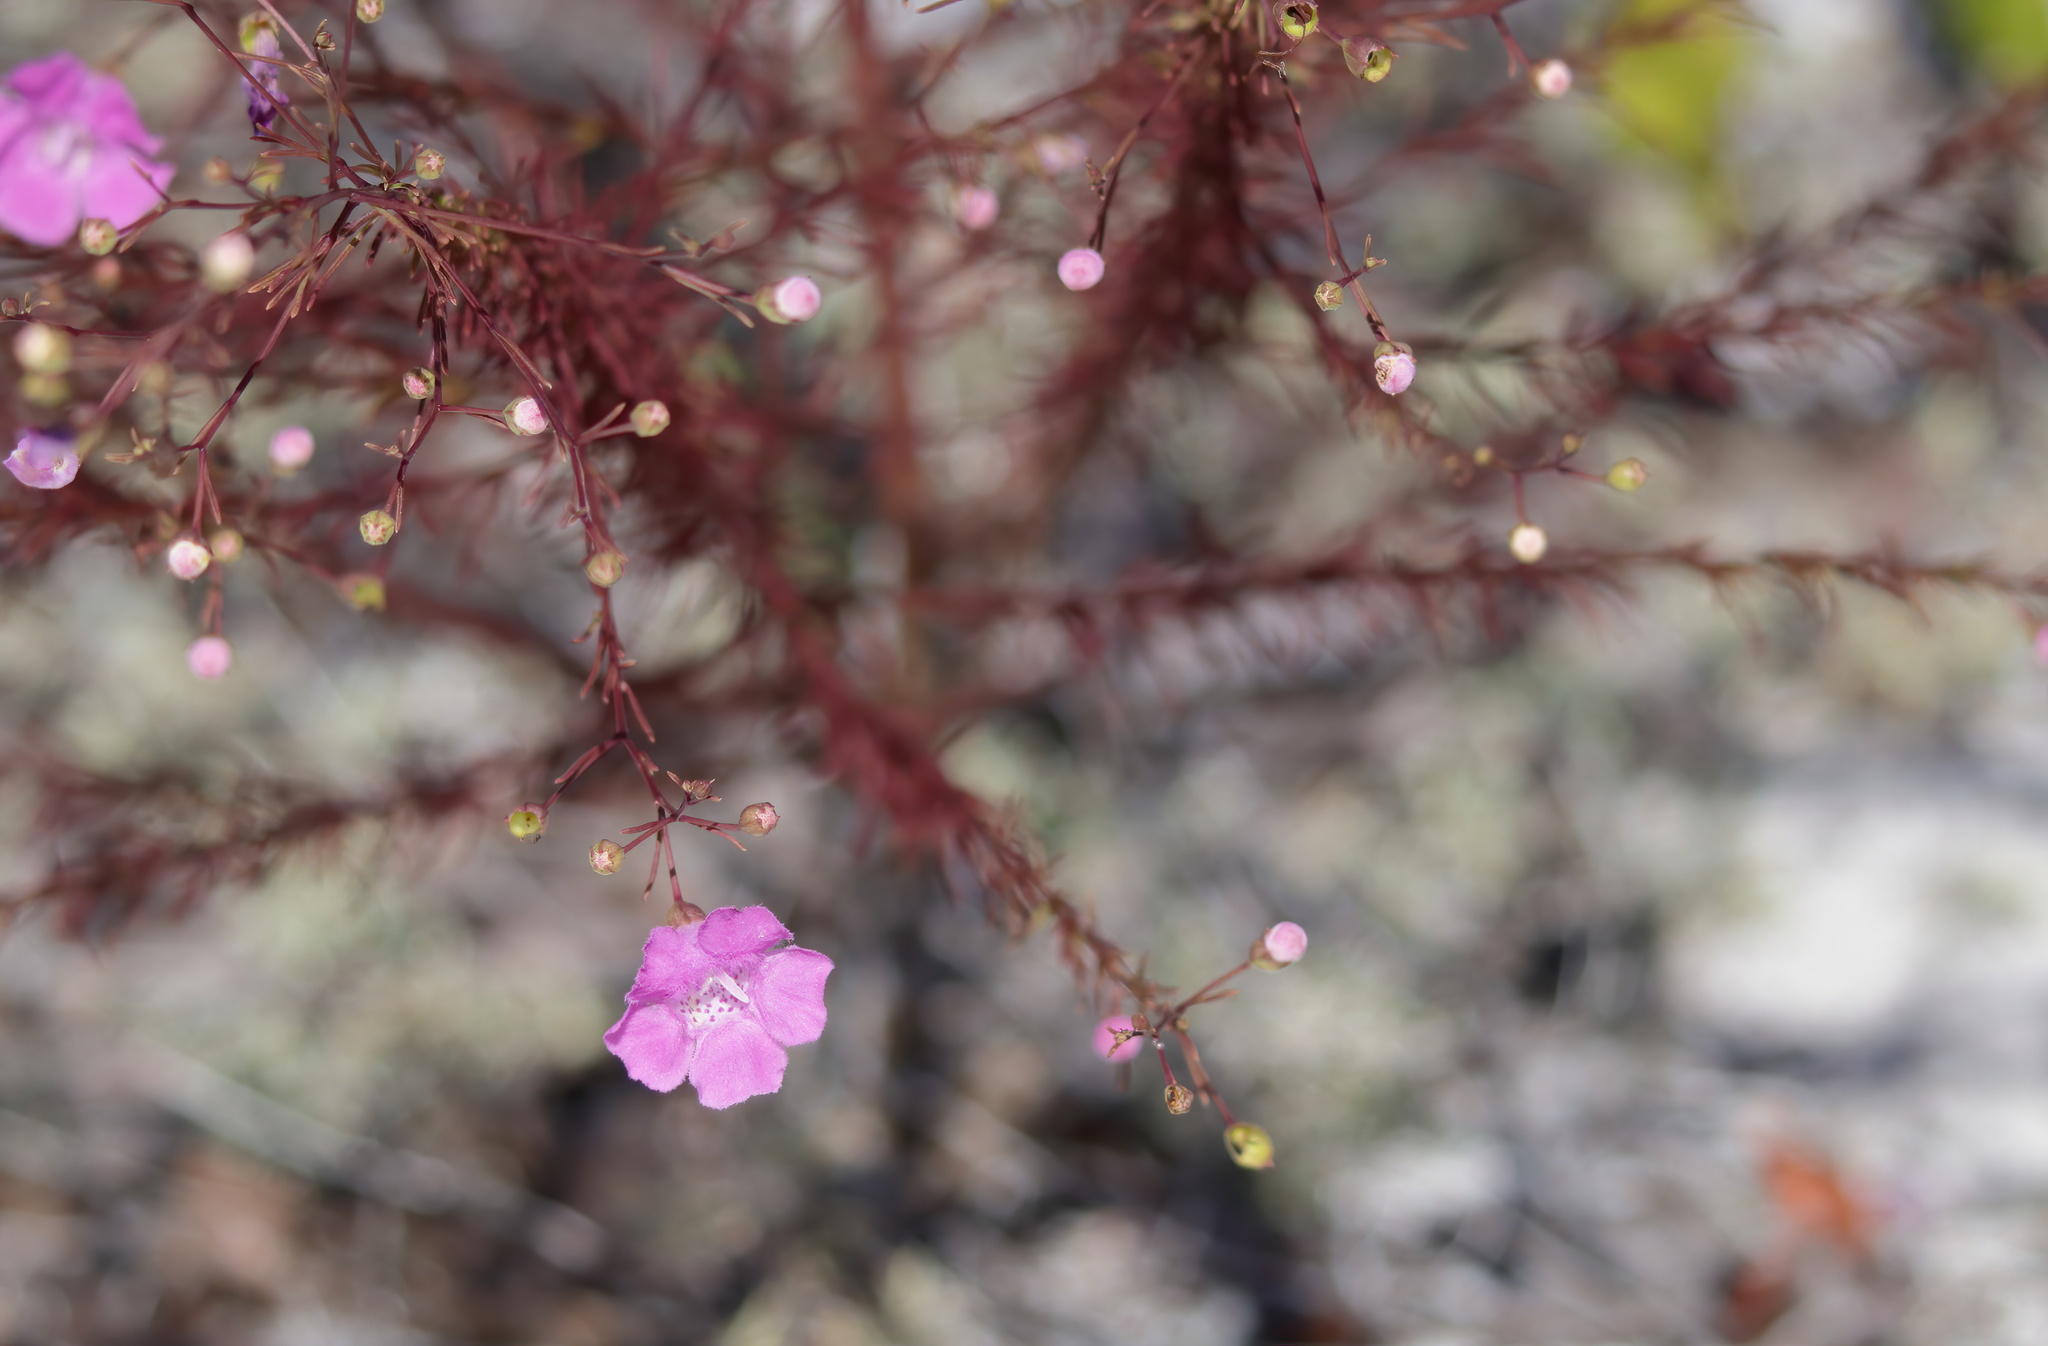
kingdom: Plantae
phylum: Tracheophyta
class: Magnoliopsida
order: Lamiales
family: Orobanchaceae
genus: Agalinis
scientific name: Agalinis filifolia
